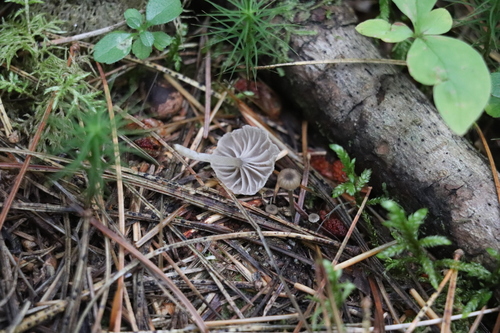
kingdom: Fungi
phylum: Basidiomycota
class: Agaricomycetes
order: Agaricales
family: Entolomataceae
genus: Entoloma
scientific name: Entoloma
